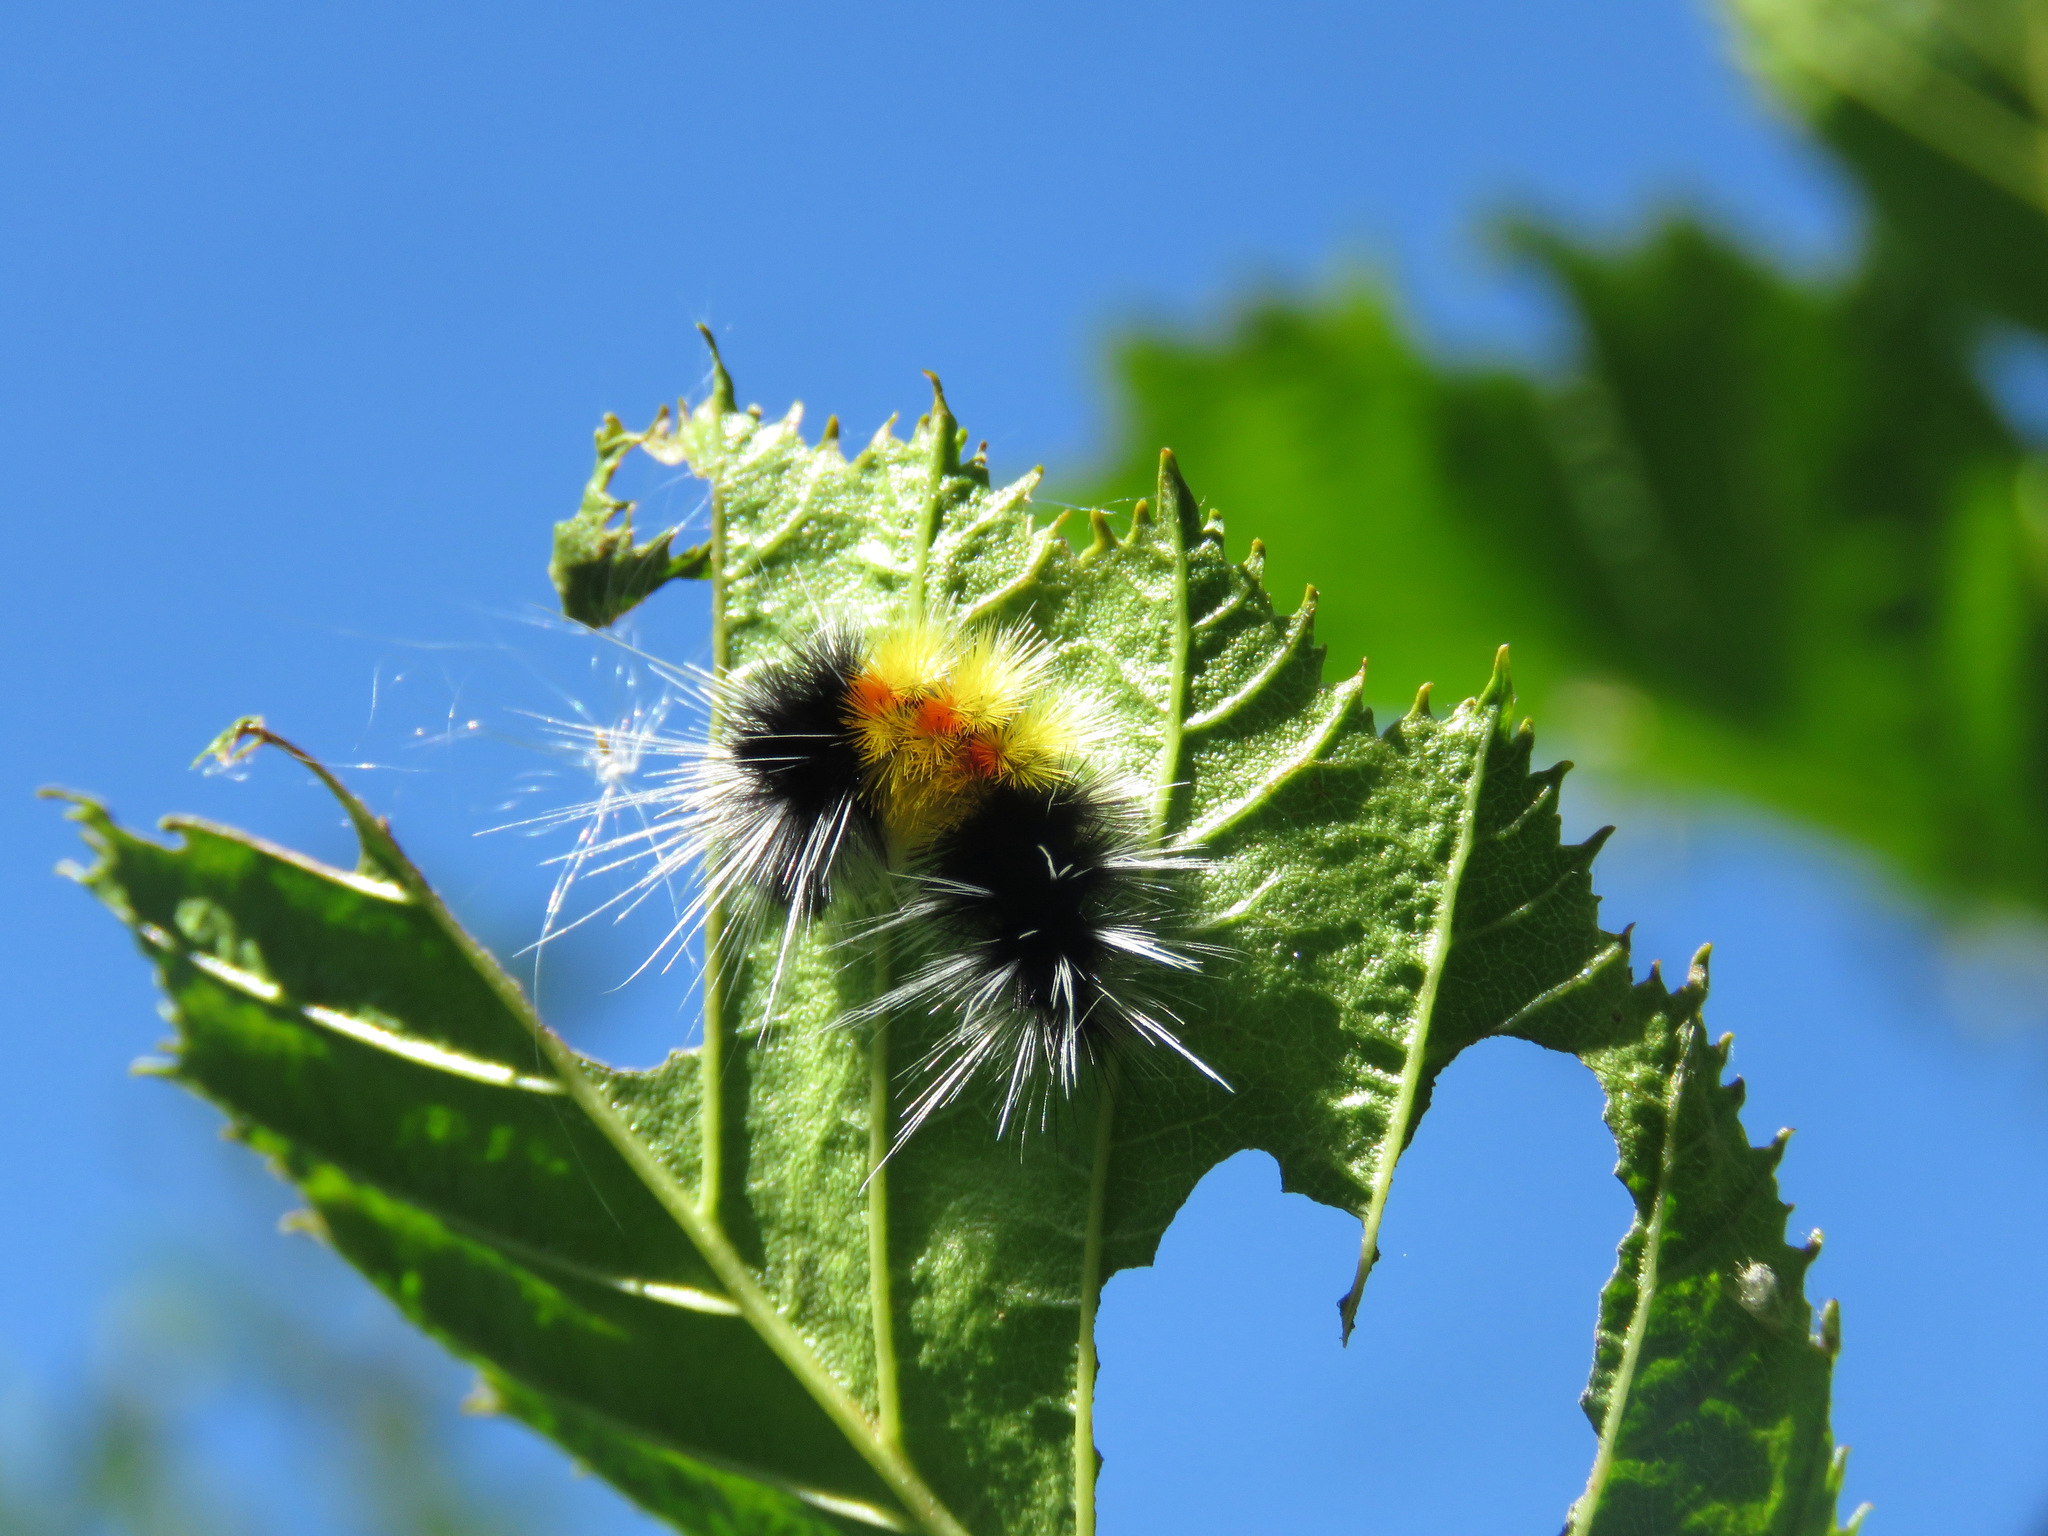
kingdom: Animalia
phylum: Arthropoda
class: Insecta
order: Lepidoptera
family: Erebidae
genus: Lophocampa
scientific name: Lophocampa maculata
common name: Spotted tussock moth
